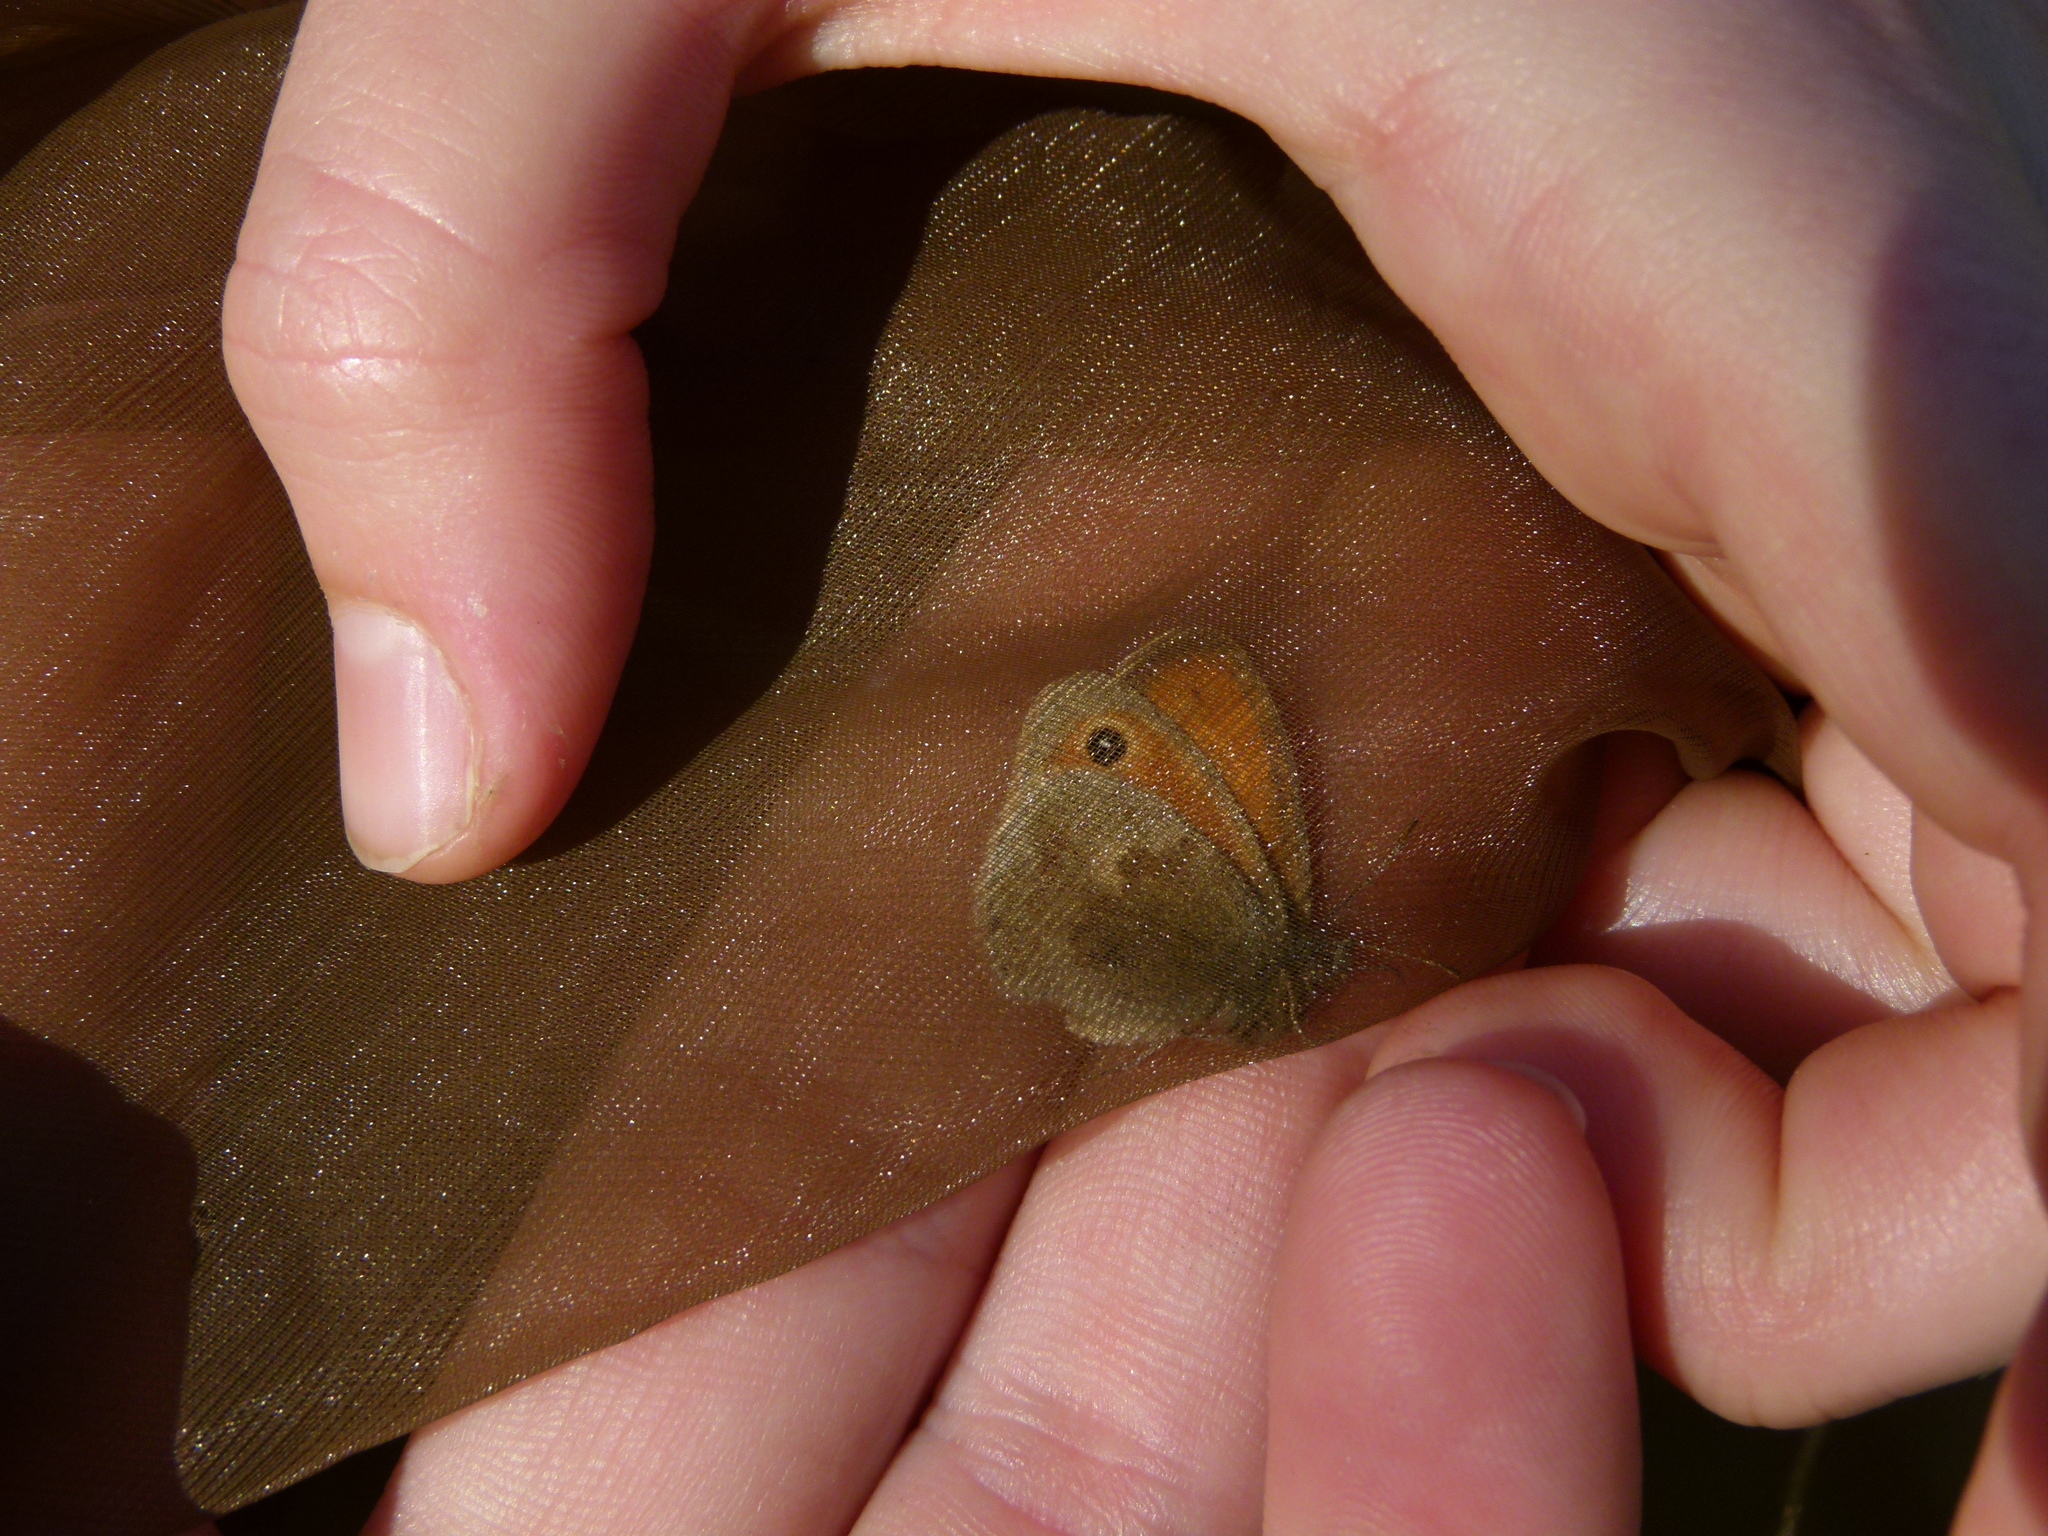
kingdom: Animalia
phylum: Arthropoda
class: Insecta
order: Lepidoptera
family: Nymphalidae
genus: Coenonympha
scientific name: Coenonympha pamphilus
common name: Small heath
